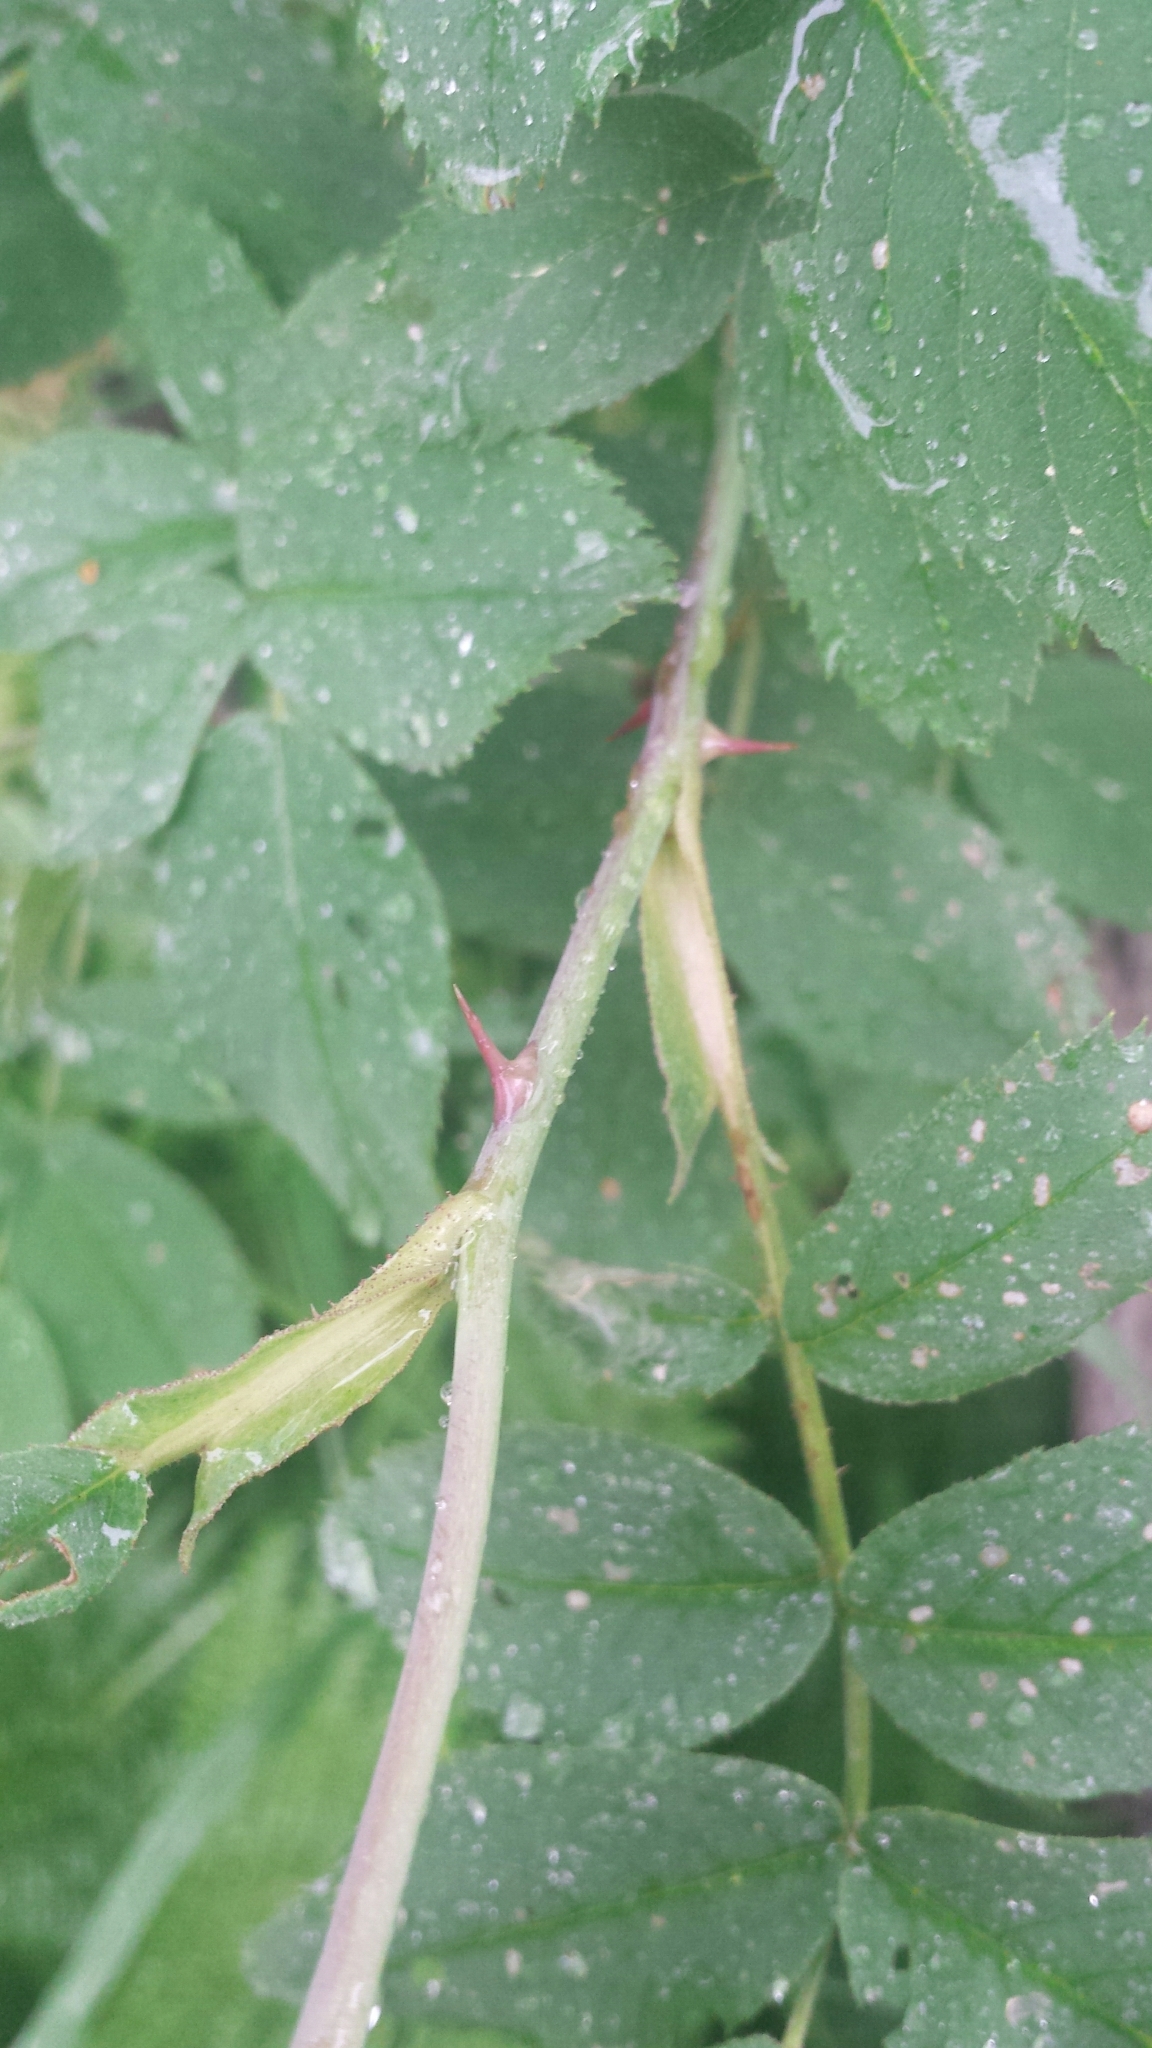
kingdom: Plantae
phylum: Tracheophyta
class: Magnoliopsida
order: Rosales
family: Rosaceae
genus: Rosa
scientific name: Rosa sherardii
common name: Sherard's downy rose
